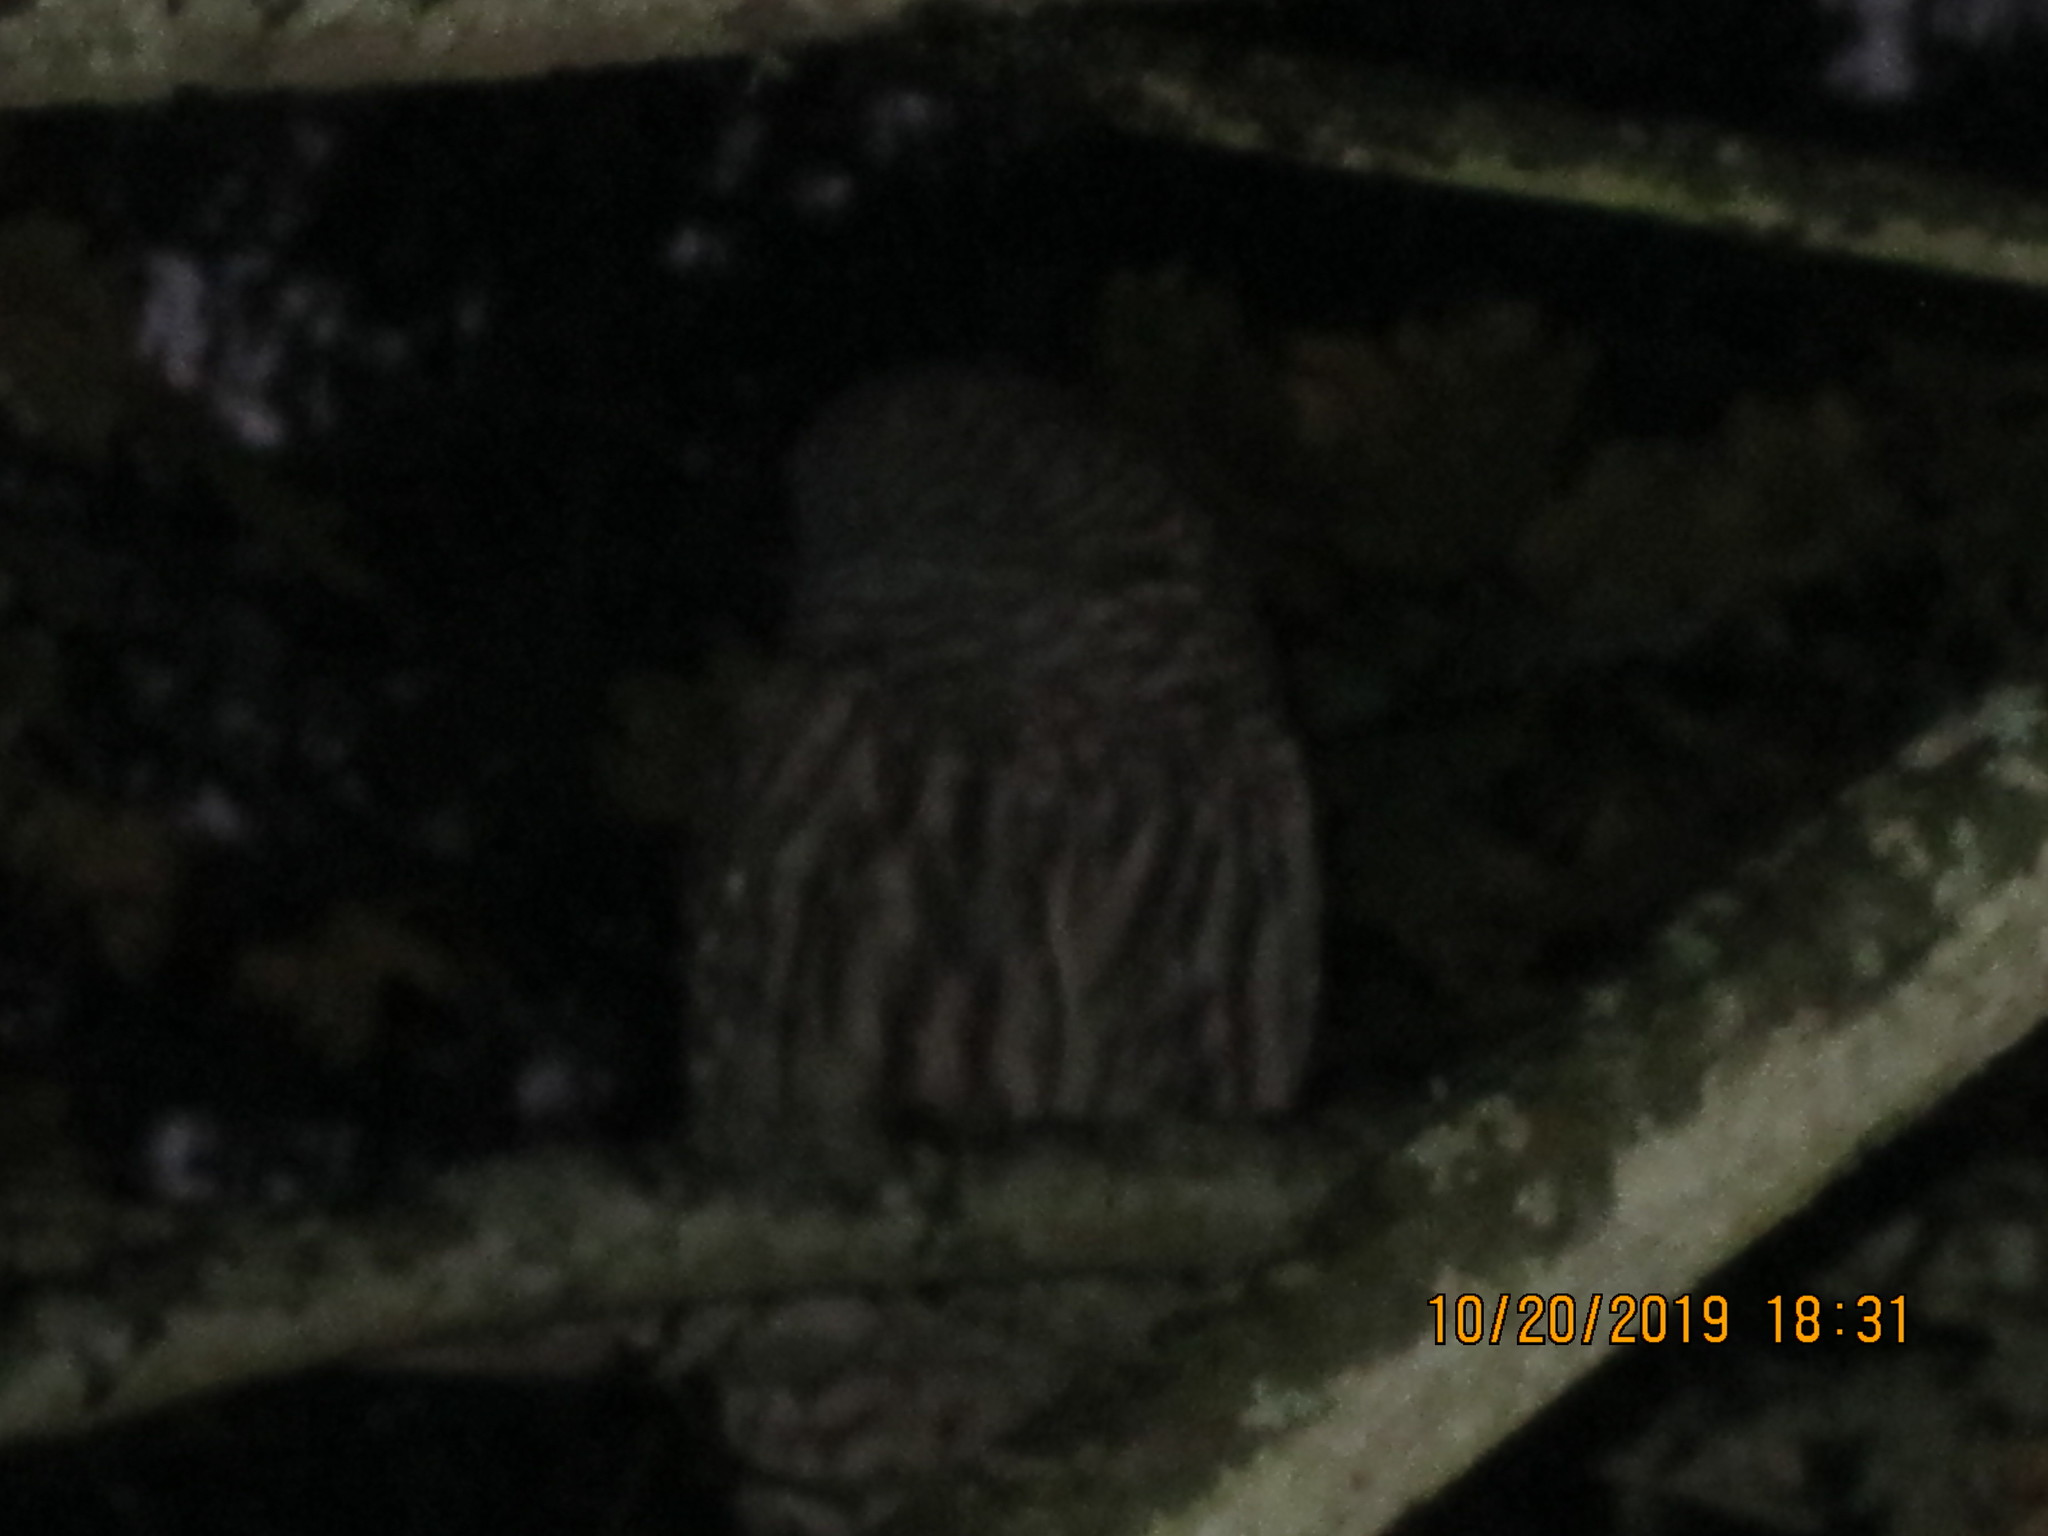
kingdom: Animalia
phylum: Chordata
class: Aves
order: Strigiformes
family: Strigidae
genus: Strix
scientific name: Strix varia
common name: Barred owl
